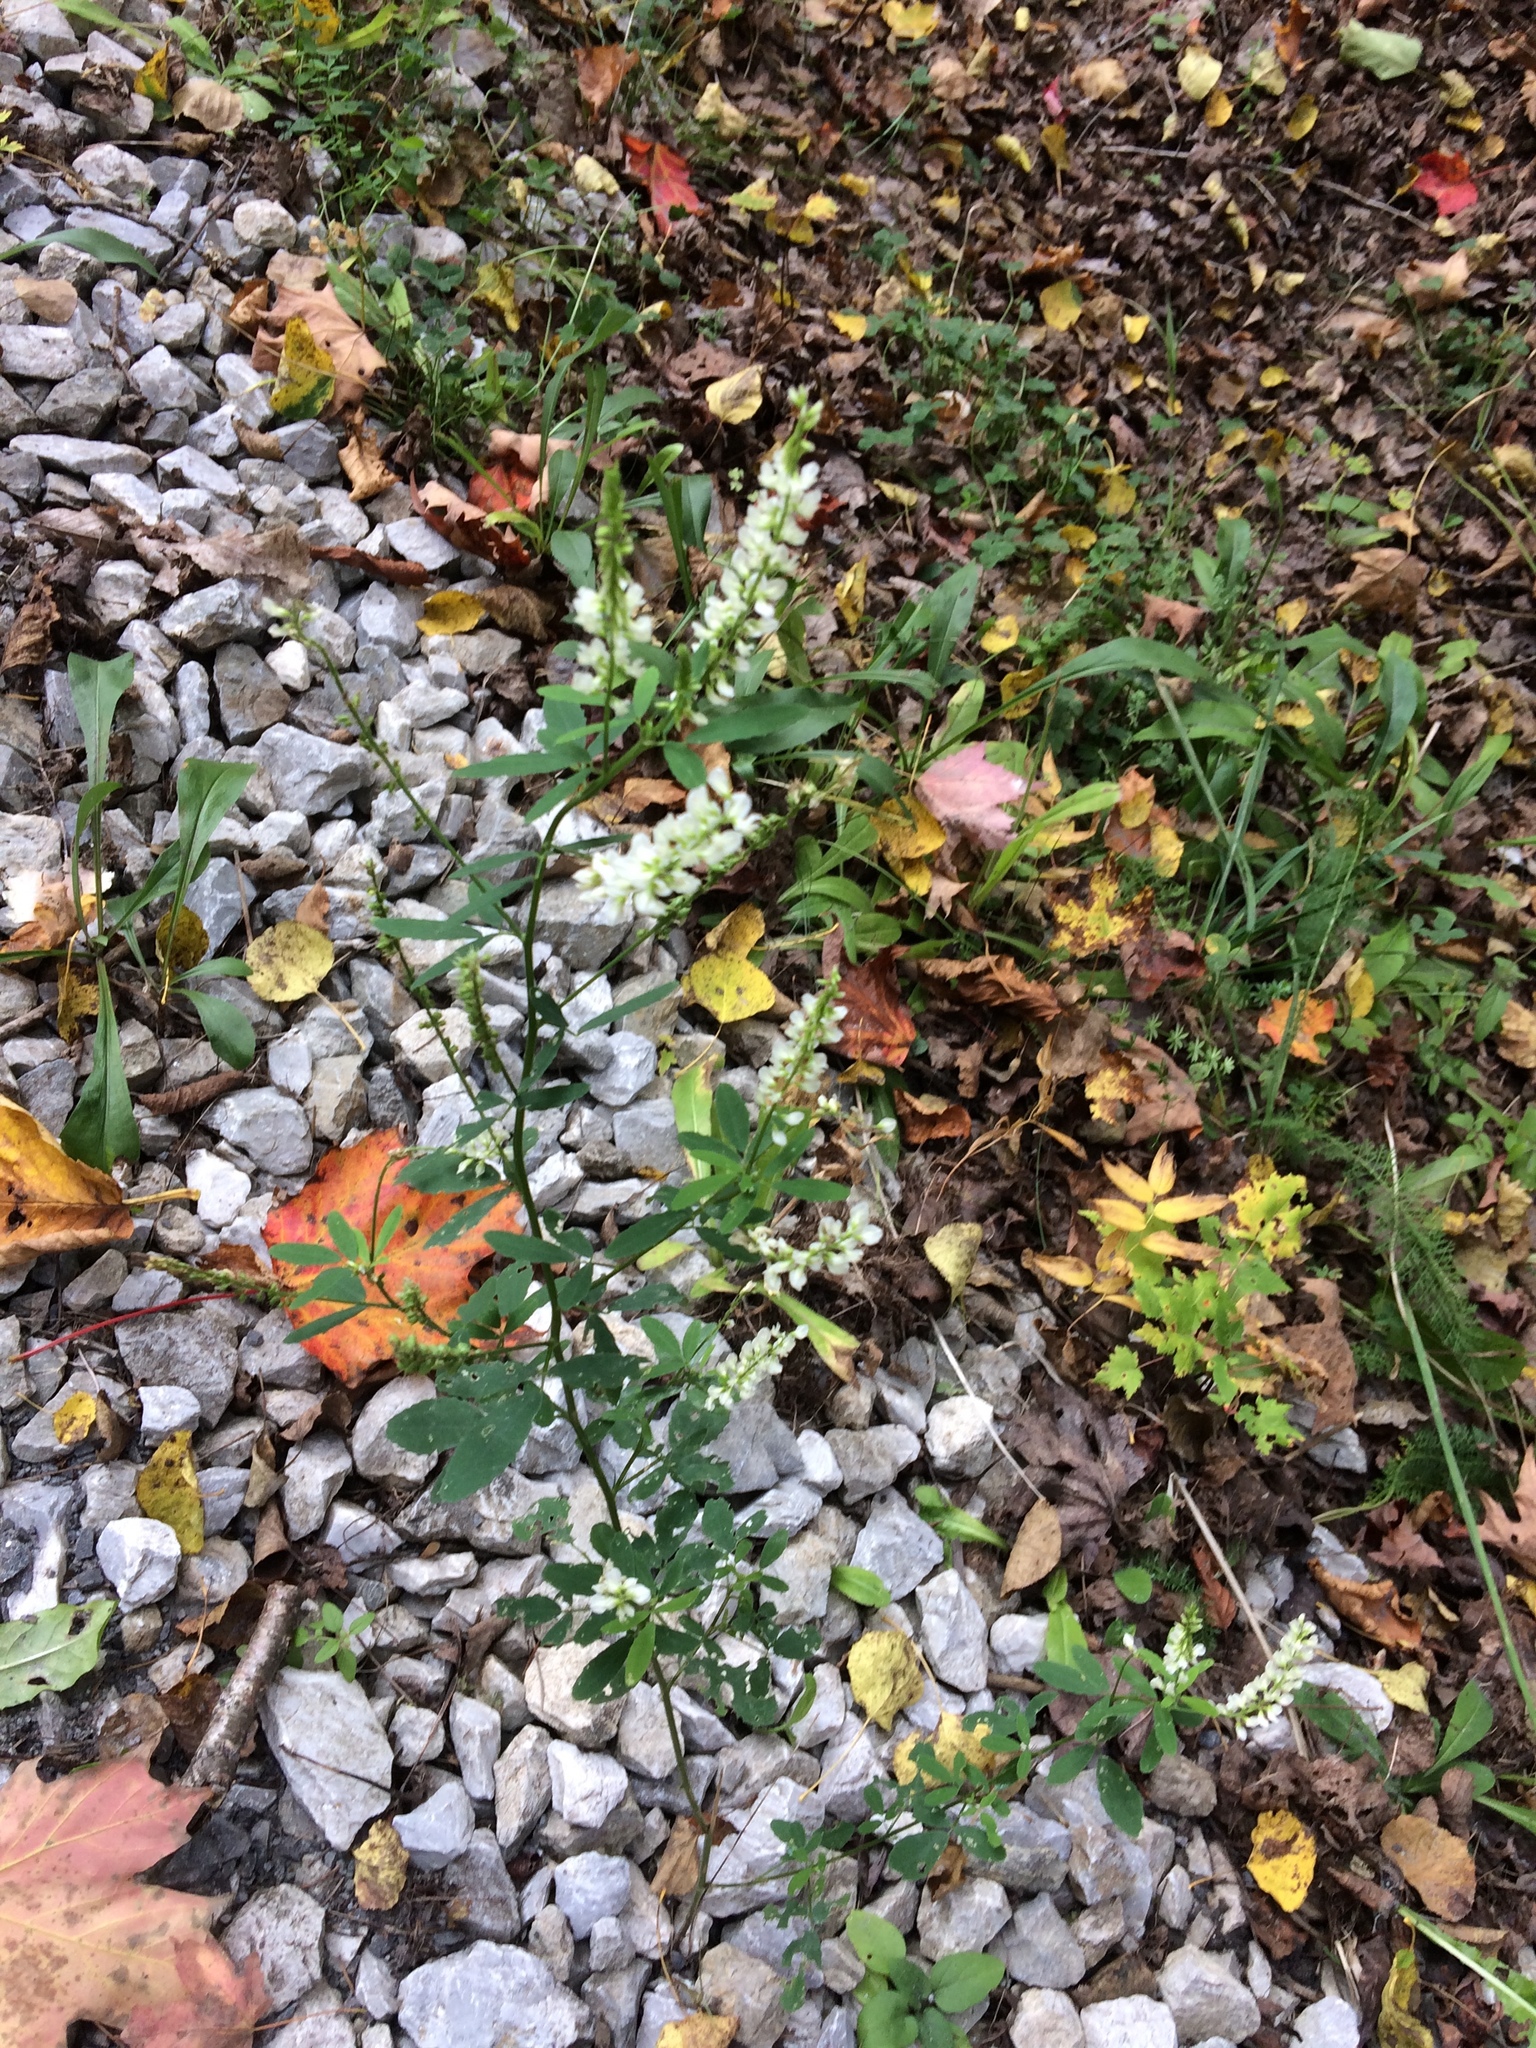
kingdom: Plantae
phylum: Tracheophyta
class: Magnoliopsida
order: Fabales
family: Fabaceae
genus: Melilotus
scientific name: Melilotus albus
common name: White melilot
